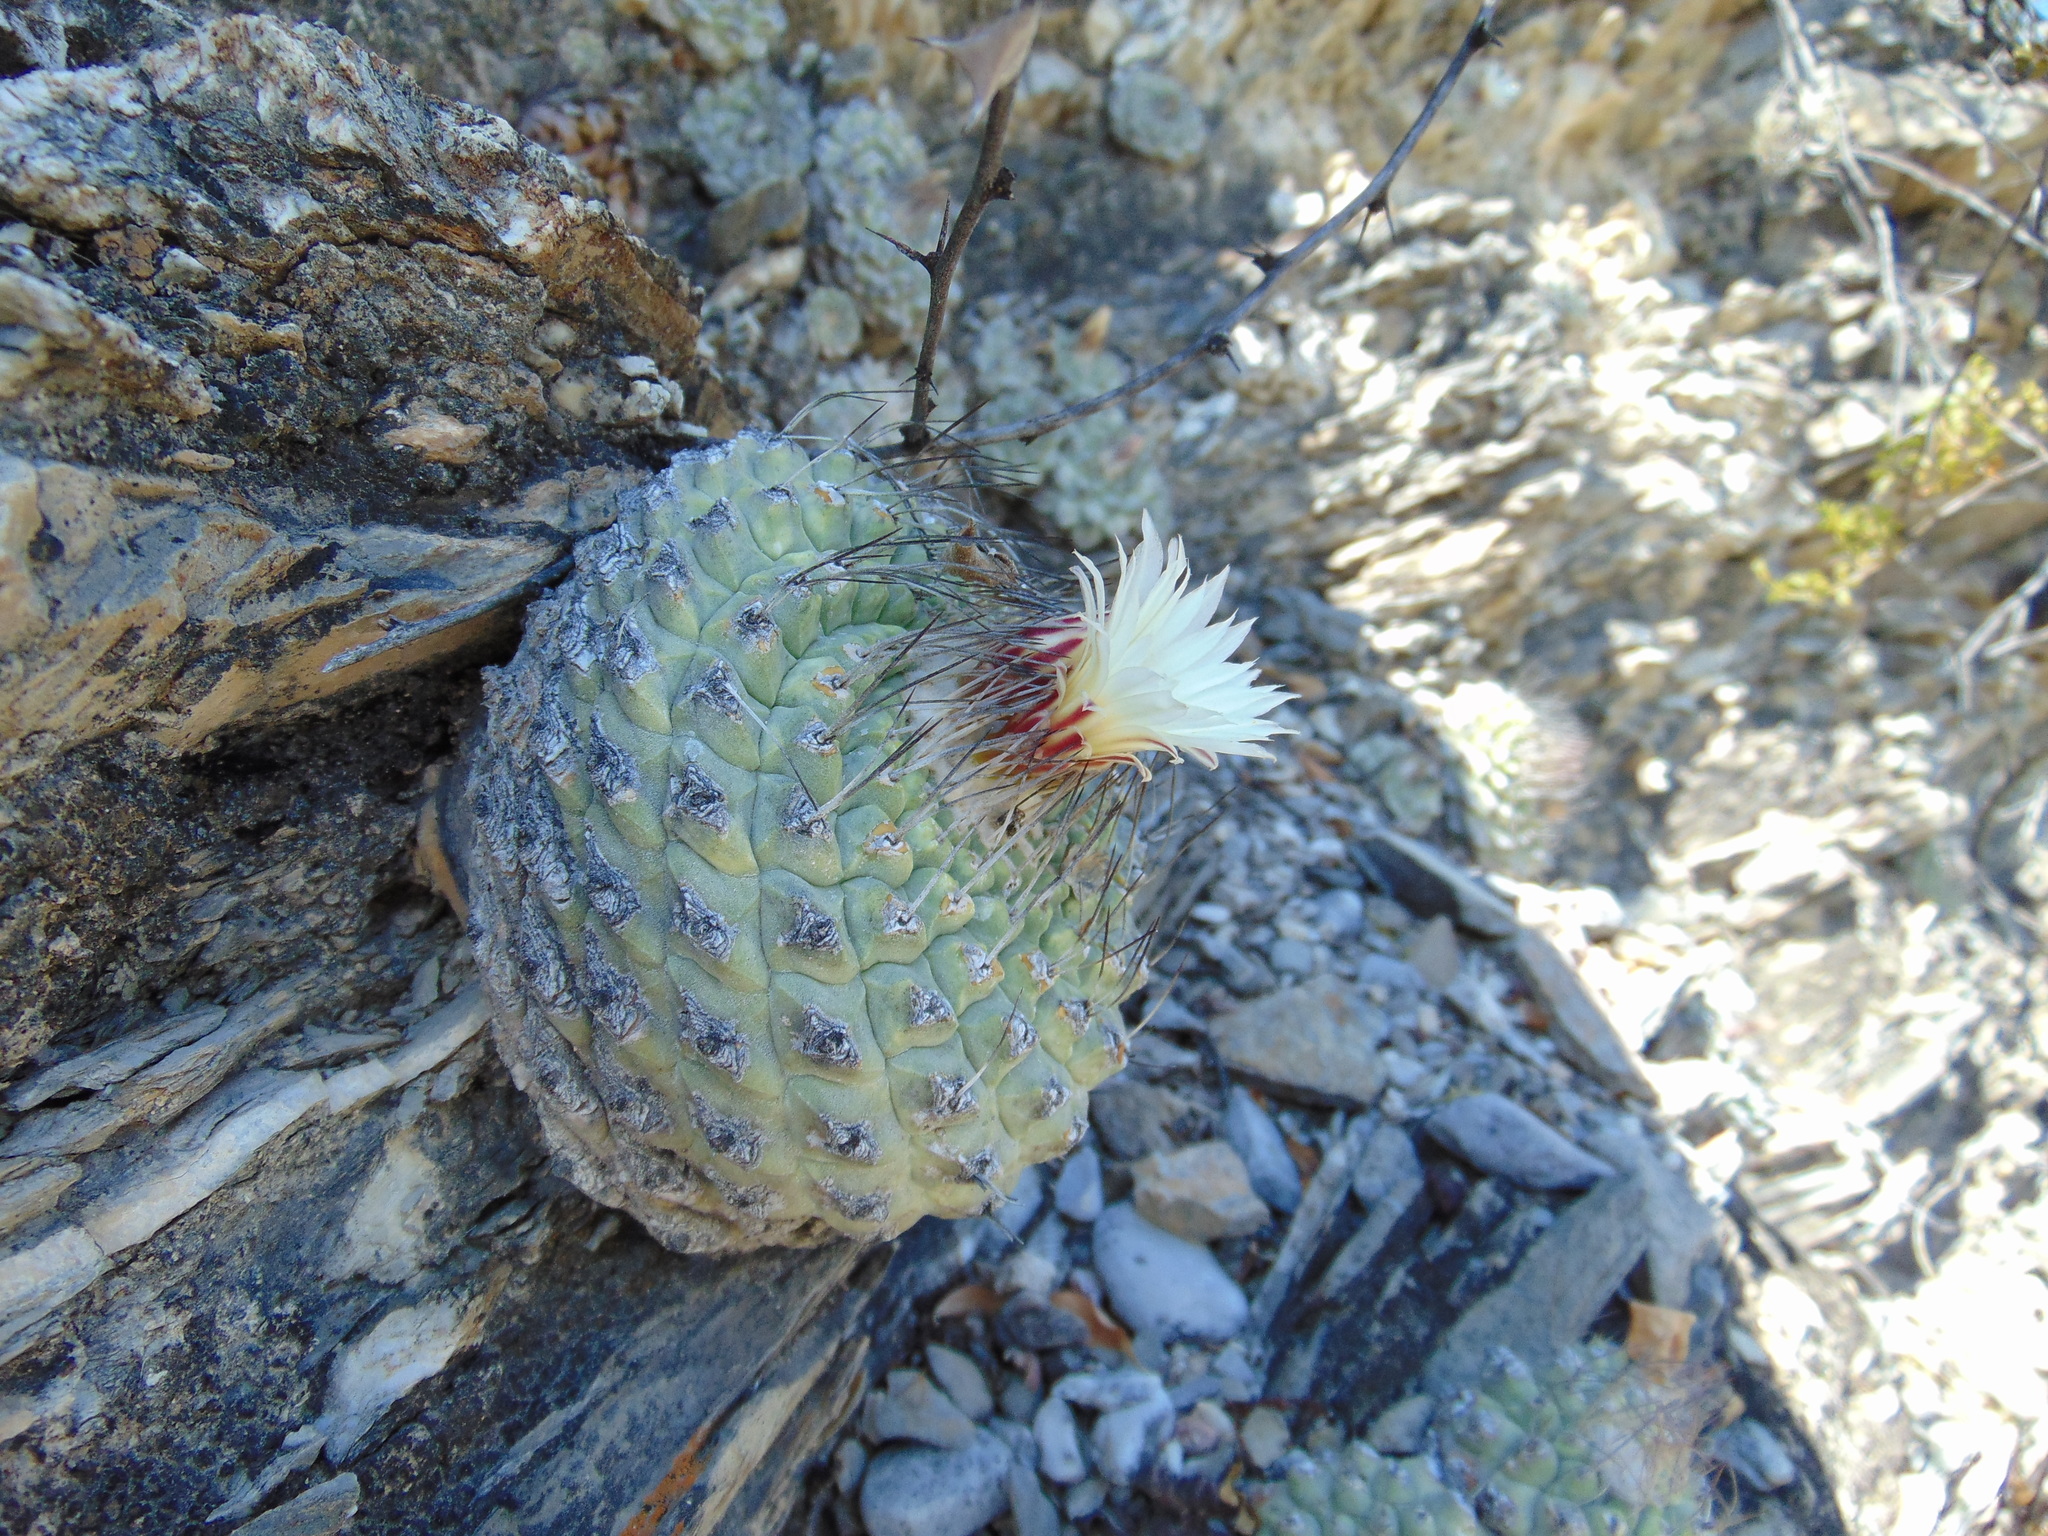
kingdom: Plantae
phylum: Tracheophyta
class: Magnoliopsida
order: Caryophyllales
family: Cactaceae
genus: Strombocactus
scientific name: Strombocactus disciformis
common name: Top cactus
